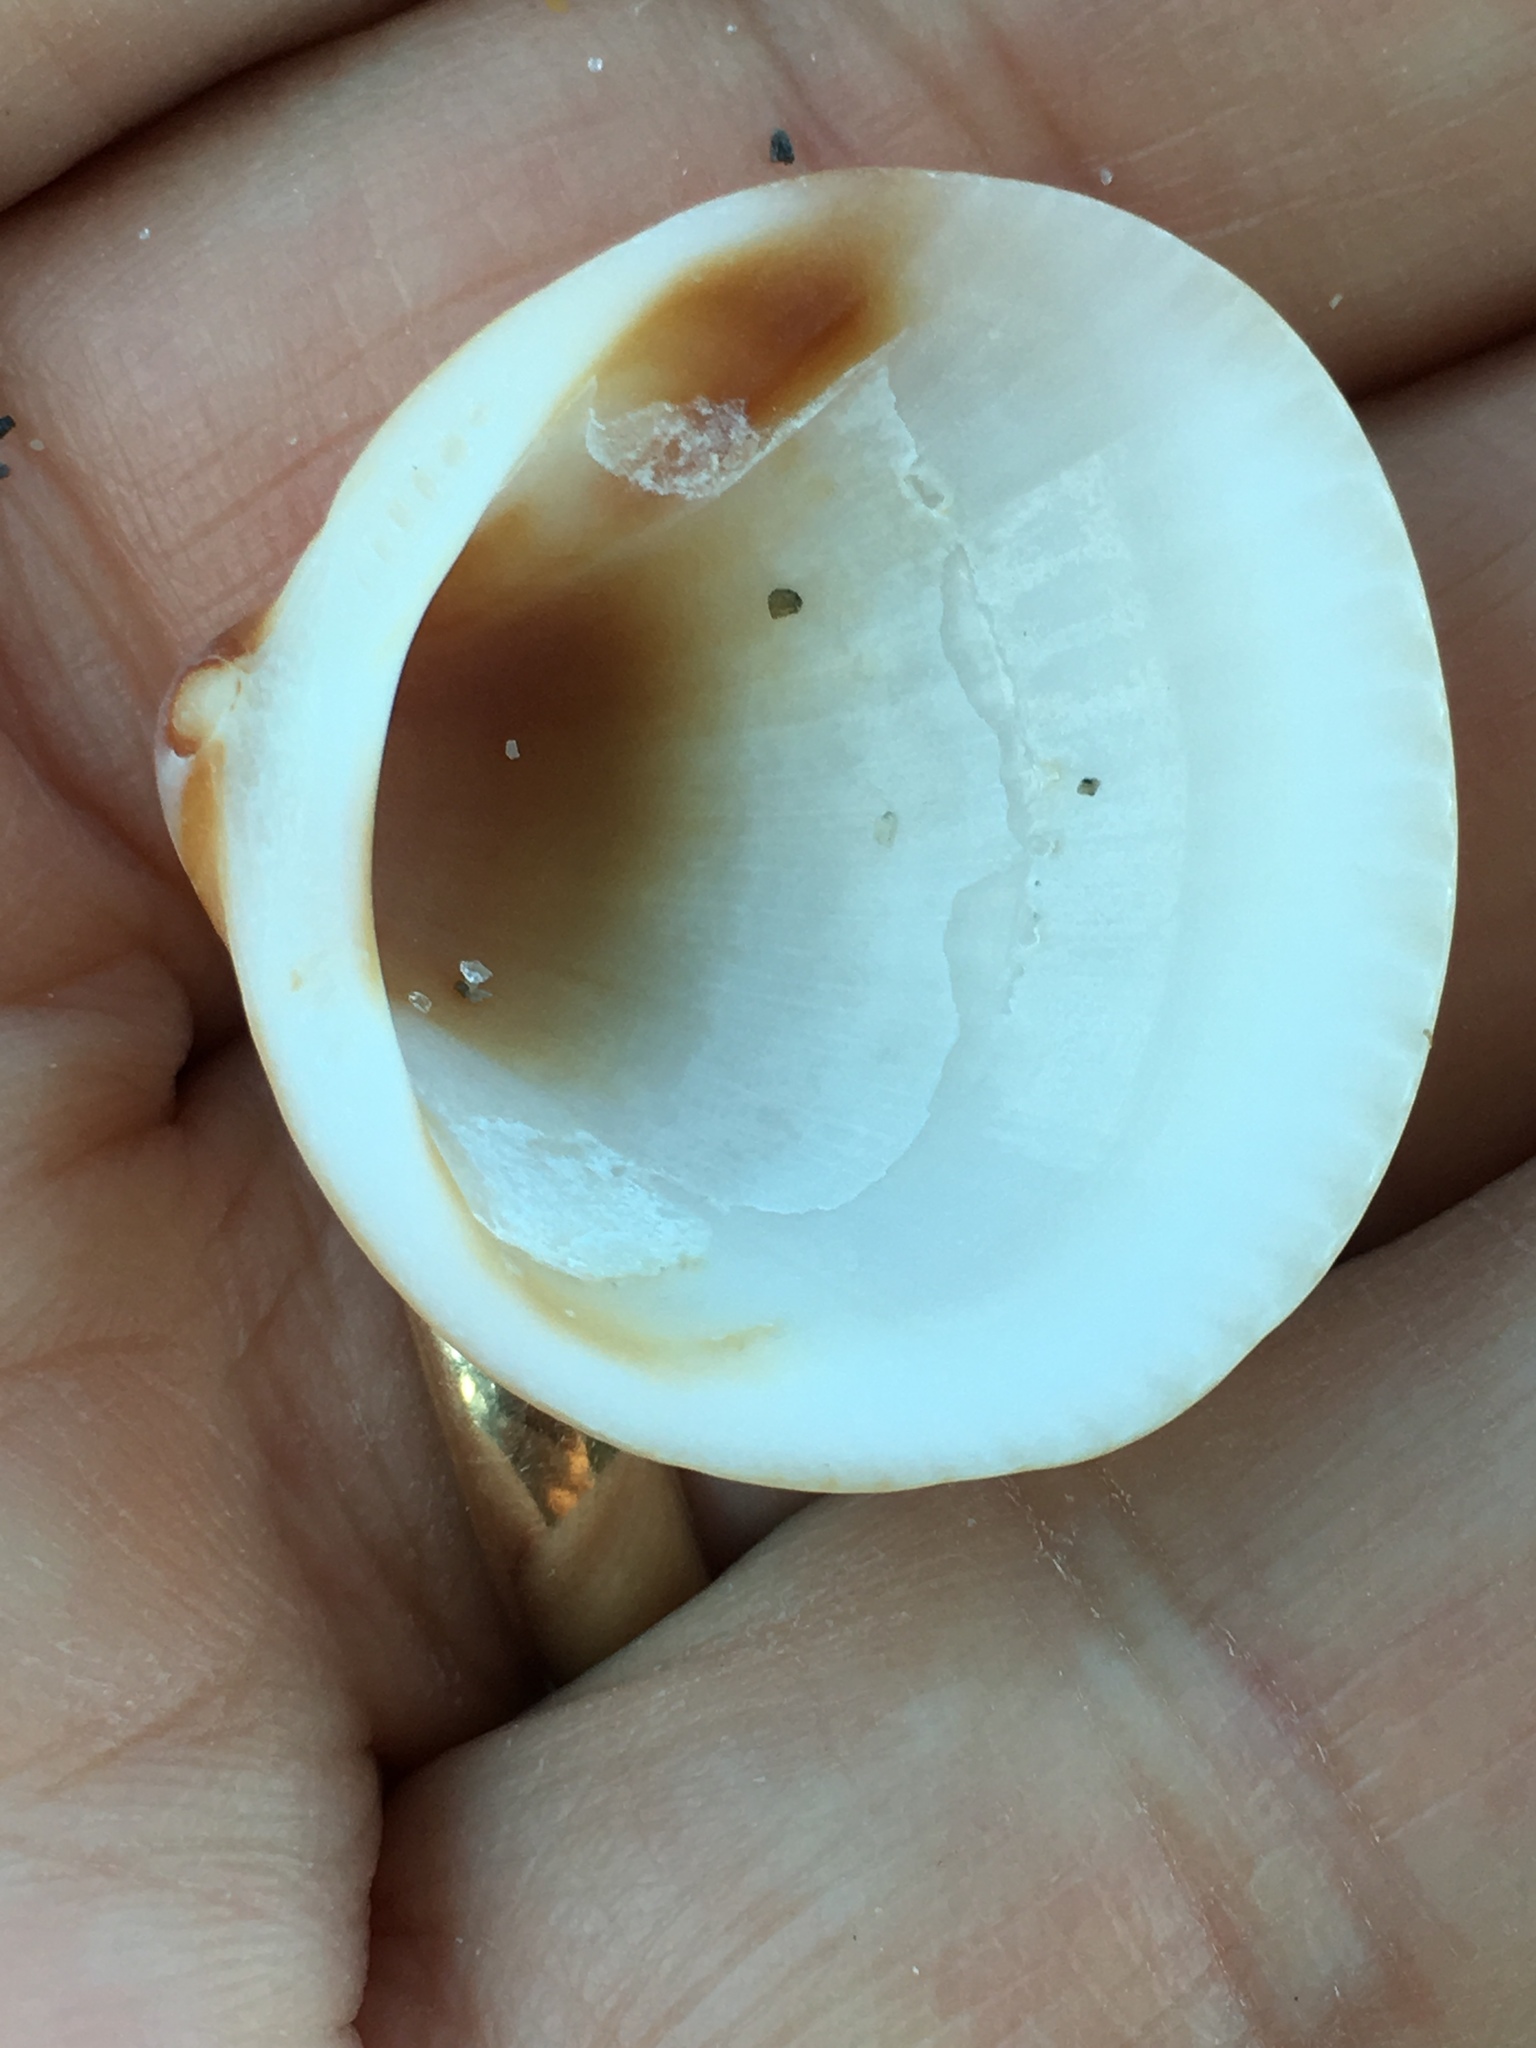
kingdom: Animalia
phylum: Mollusca
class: Bivalvia
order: Arcida
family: Glycymerididae
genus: Glycymeris
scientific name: Glycymeris spectralis
